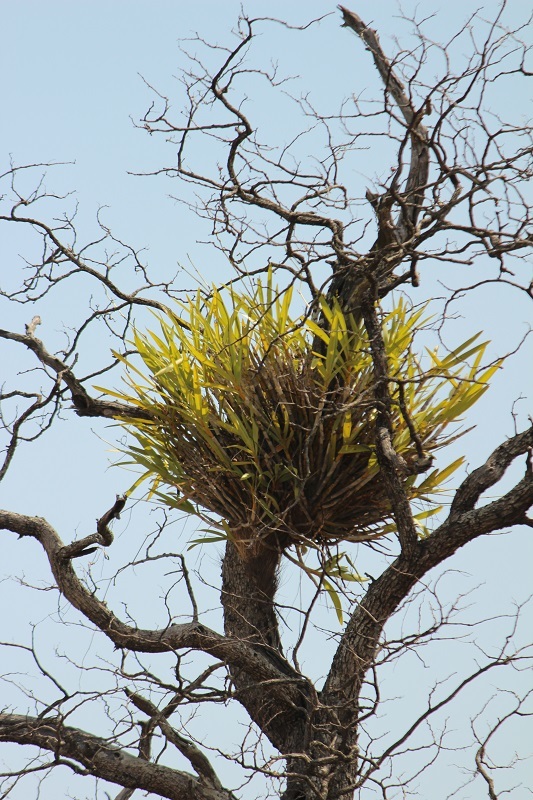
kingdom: Plantae
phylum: Tracheophyta
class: Liliopsida
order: Asparagales
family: Orchidaceae
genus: Ansellia
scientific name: Ansellia africana
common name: African ansellia
